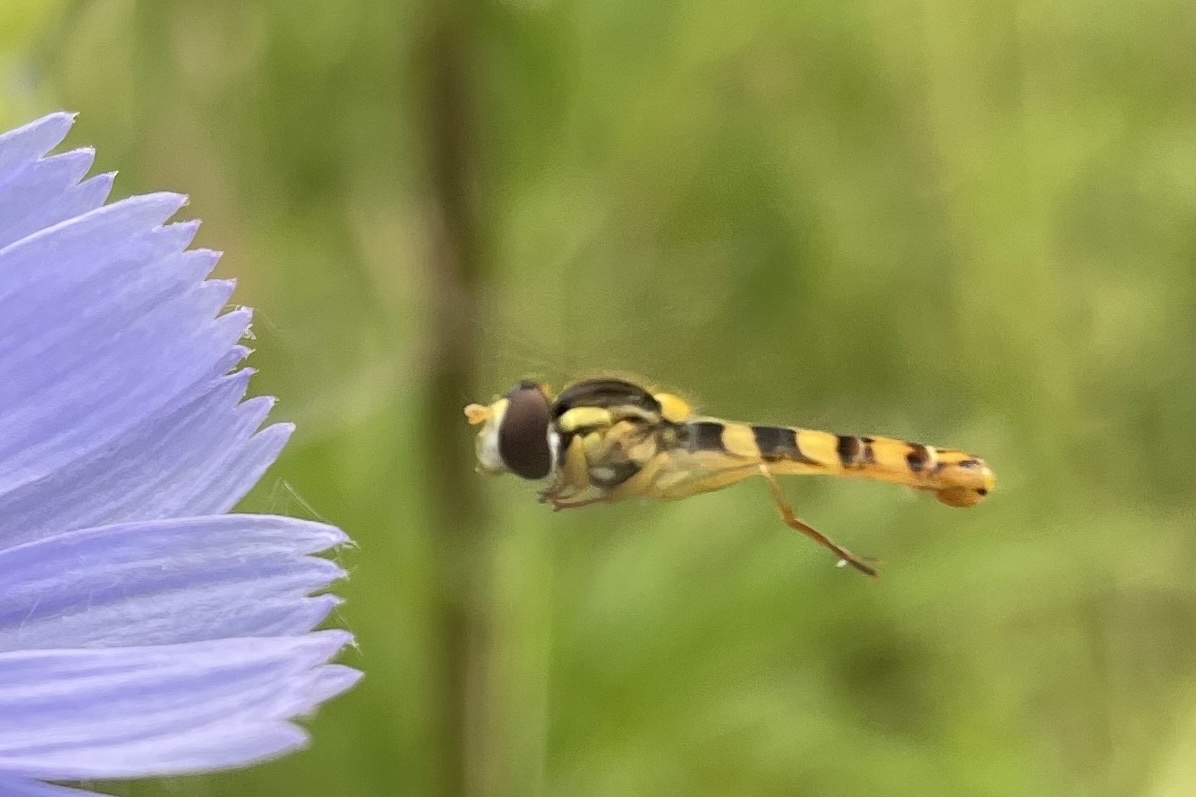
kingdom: Animalia
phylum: Arthropoda
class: Insecta
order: Diptera
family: Syrphidae
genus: Sphaerophoria
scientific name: Sphaerophoria scripta
